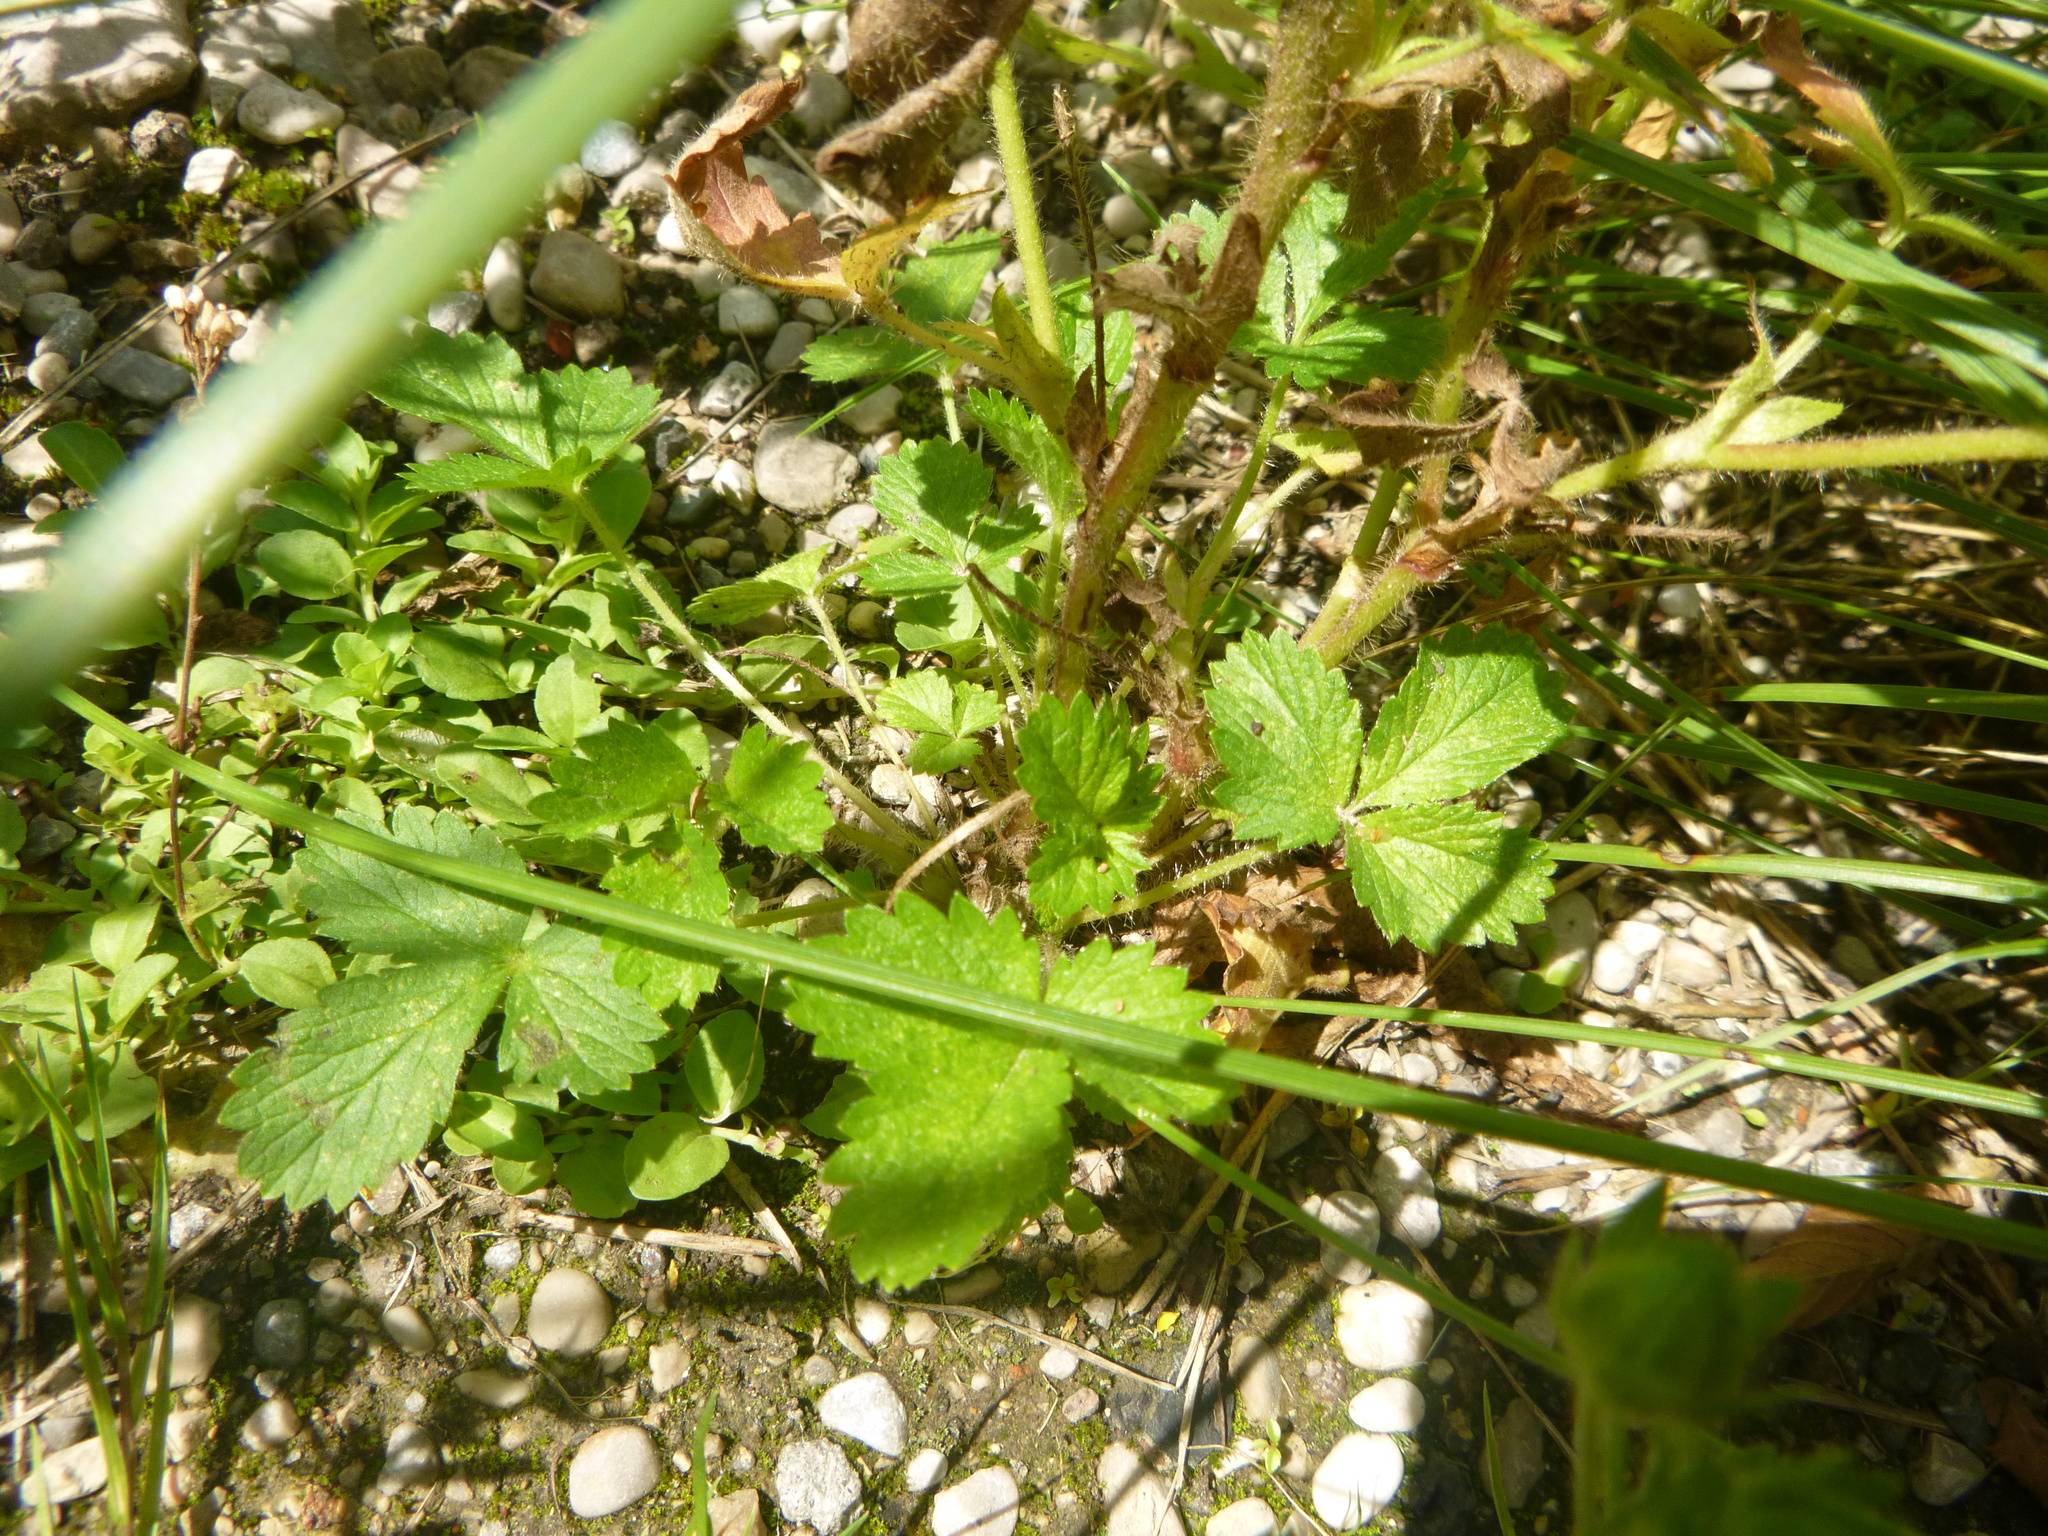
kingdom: Plantae
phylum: Tracheophyta
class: Magnoliopsida
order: Rosales
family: Rosaceae
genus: Potentilla
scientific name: Potentilla norvegica
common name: Ternate-leaved cinquefoil
